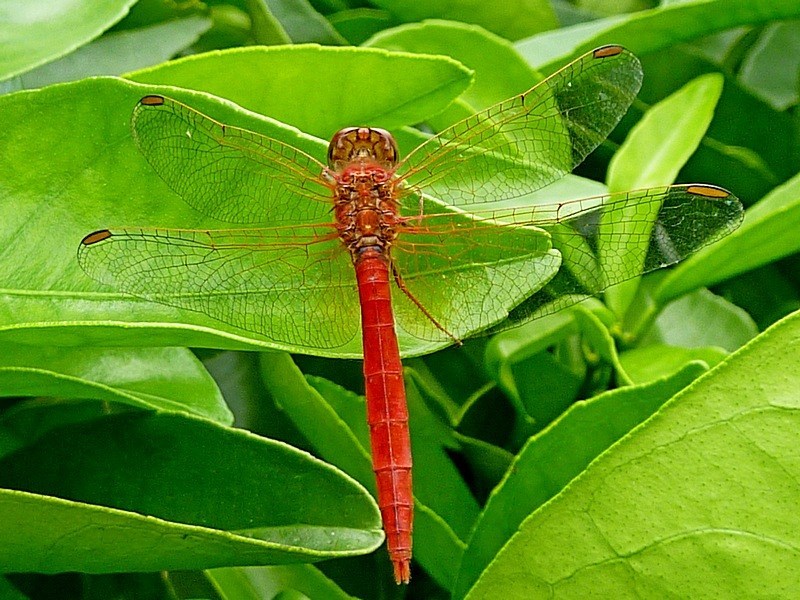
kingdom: Animalia
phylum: Arthropoda
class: Insecta
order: Odonata
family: Libellulidae
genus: Diplacodes
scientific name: Diplacodes haematodes
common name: Scarlet percher
